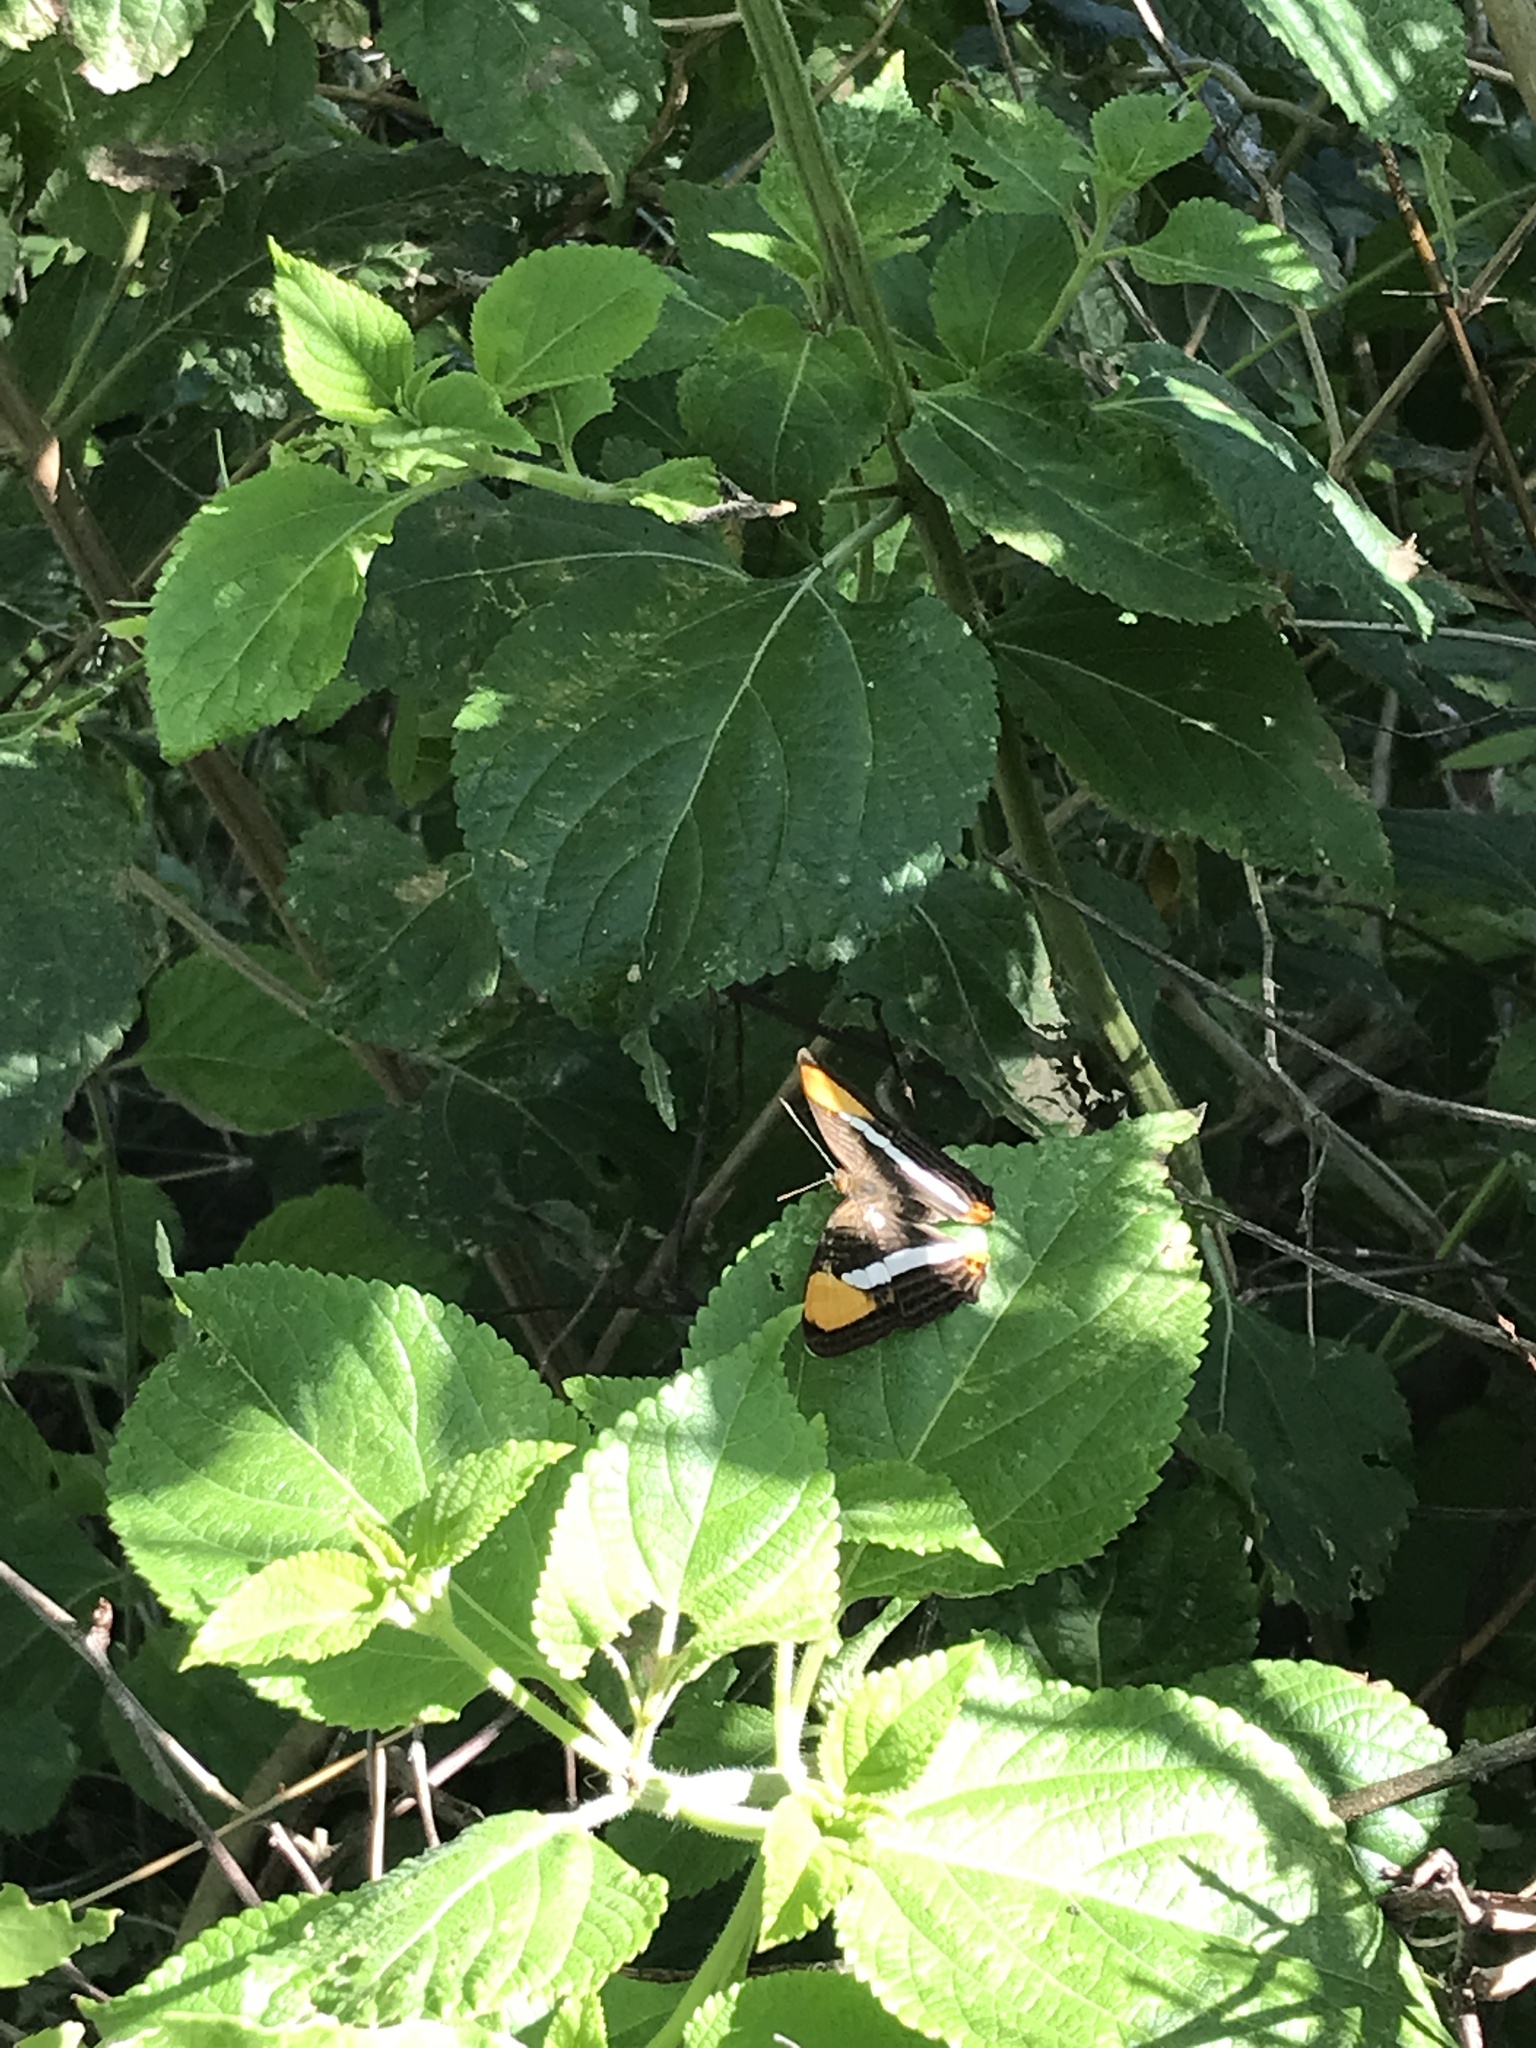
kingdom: Animalia
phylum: Arthropoda
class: Insecta
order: Lepidoptera
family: Nymphalidae
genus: Limenitis
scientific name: Limenitis syma
